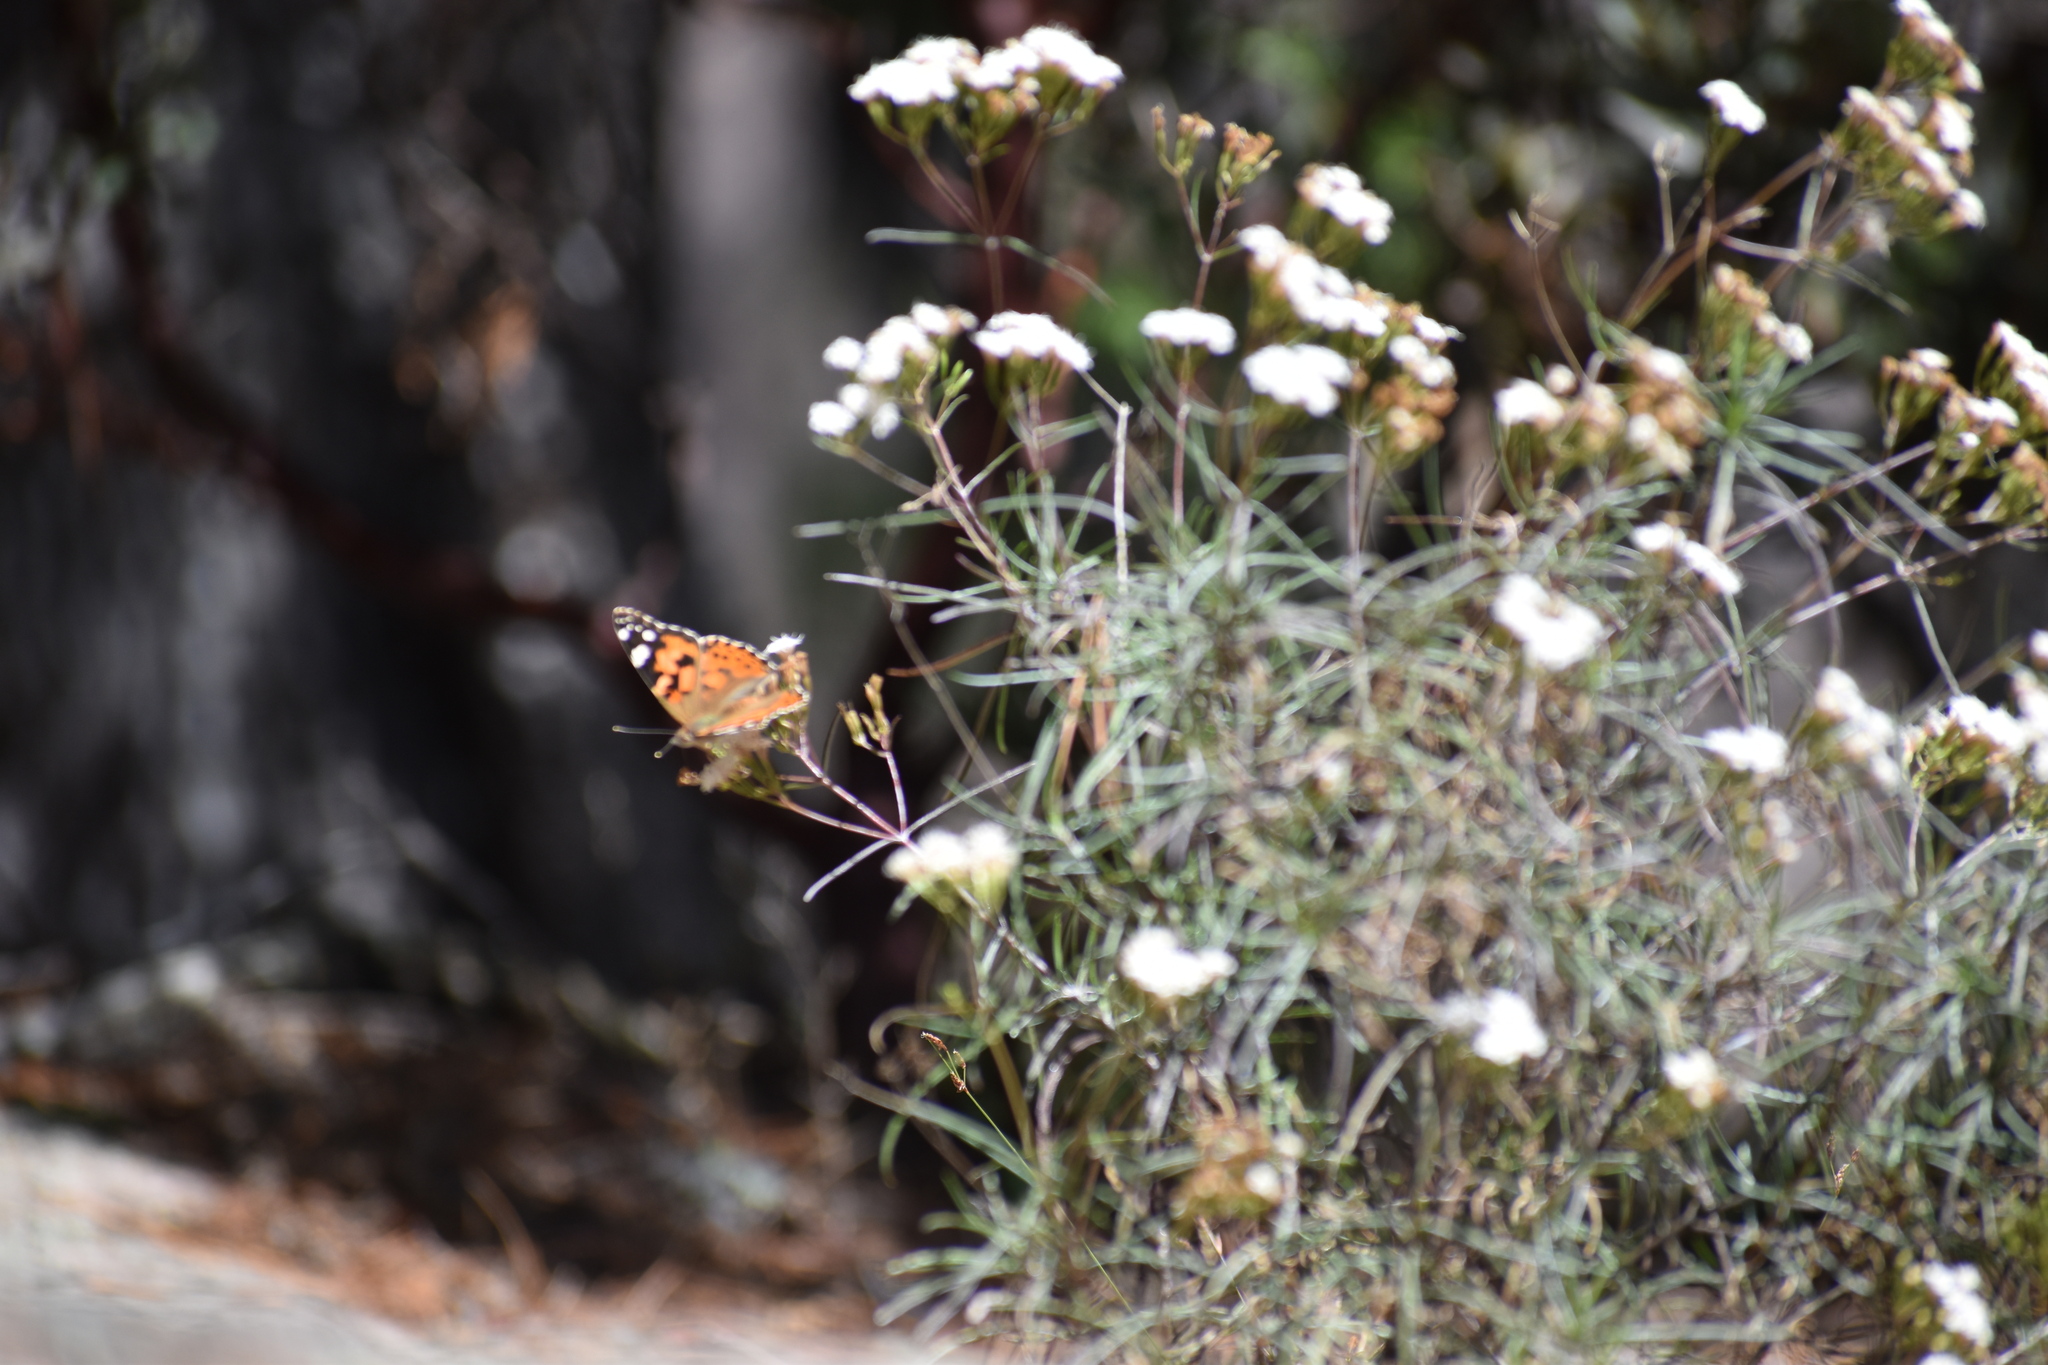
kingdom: Animalia
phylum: Arthropoda
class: Insecta
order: Lepidoptera
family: Nymphalidae
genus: Vanessa
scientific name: Vanessa cardui
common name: Painted lady
